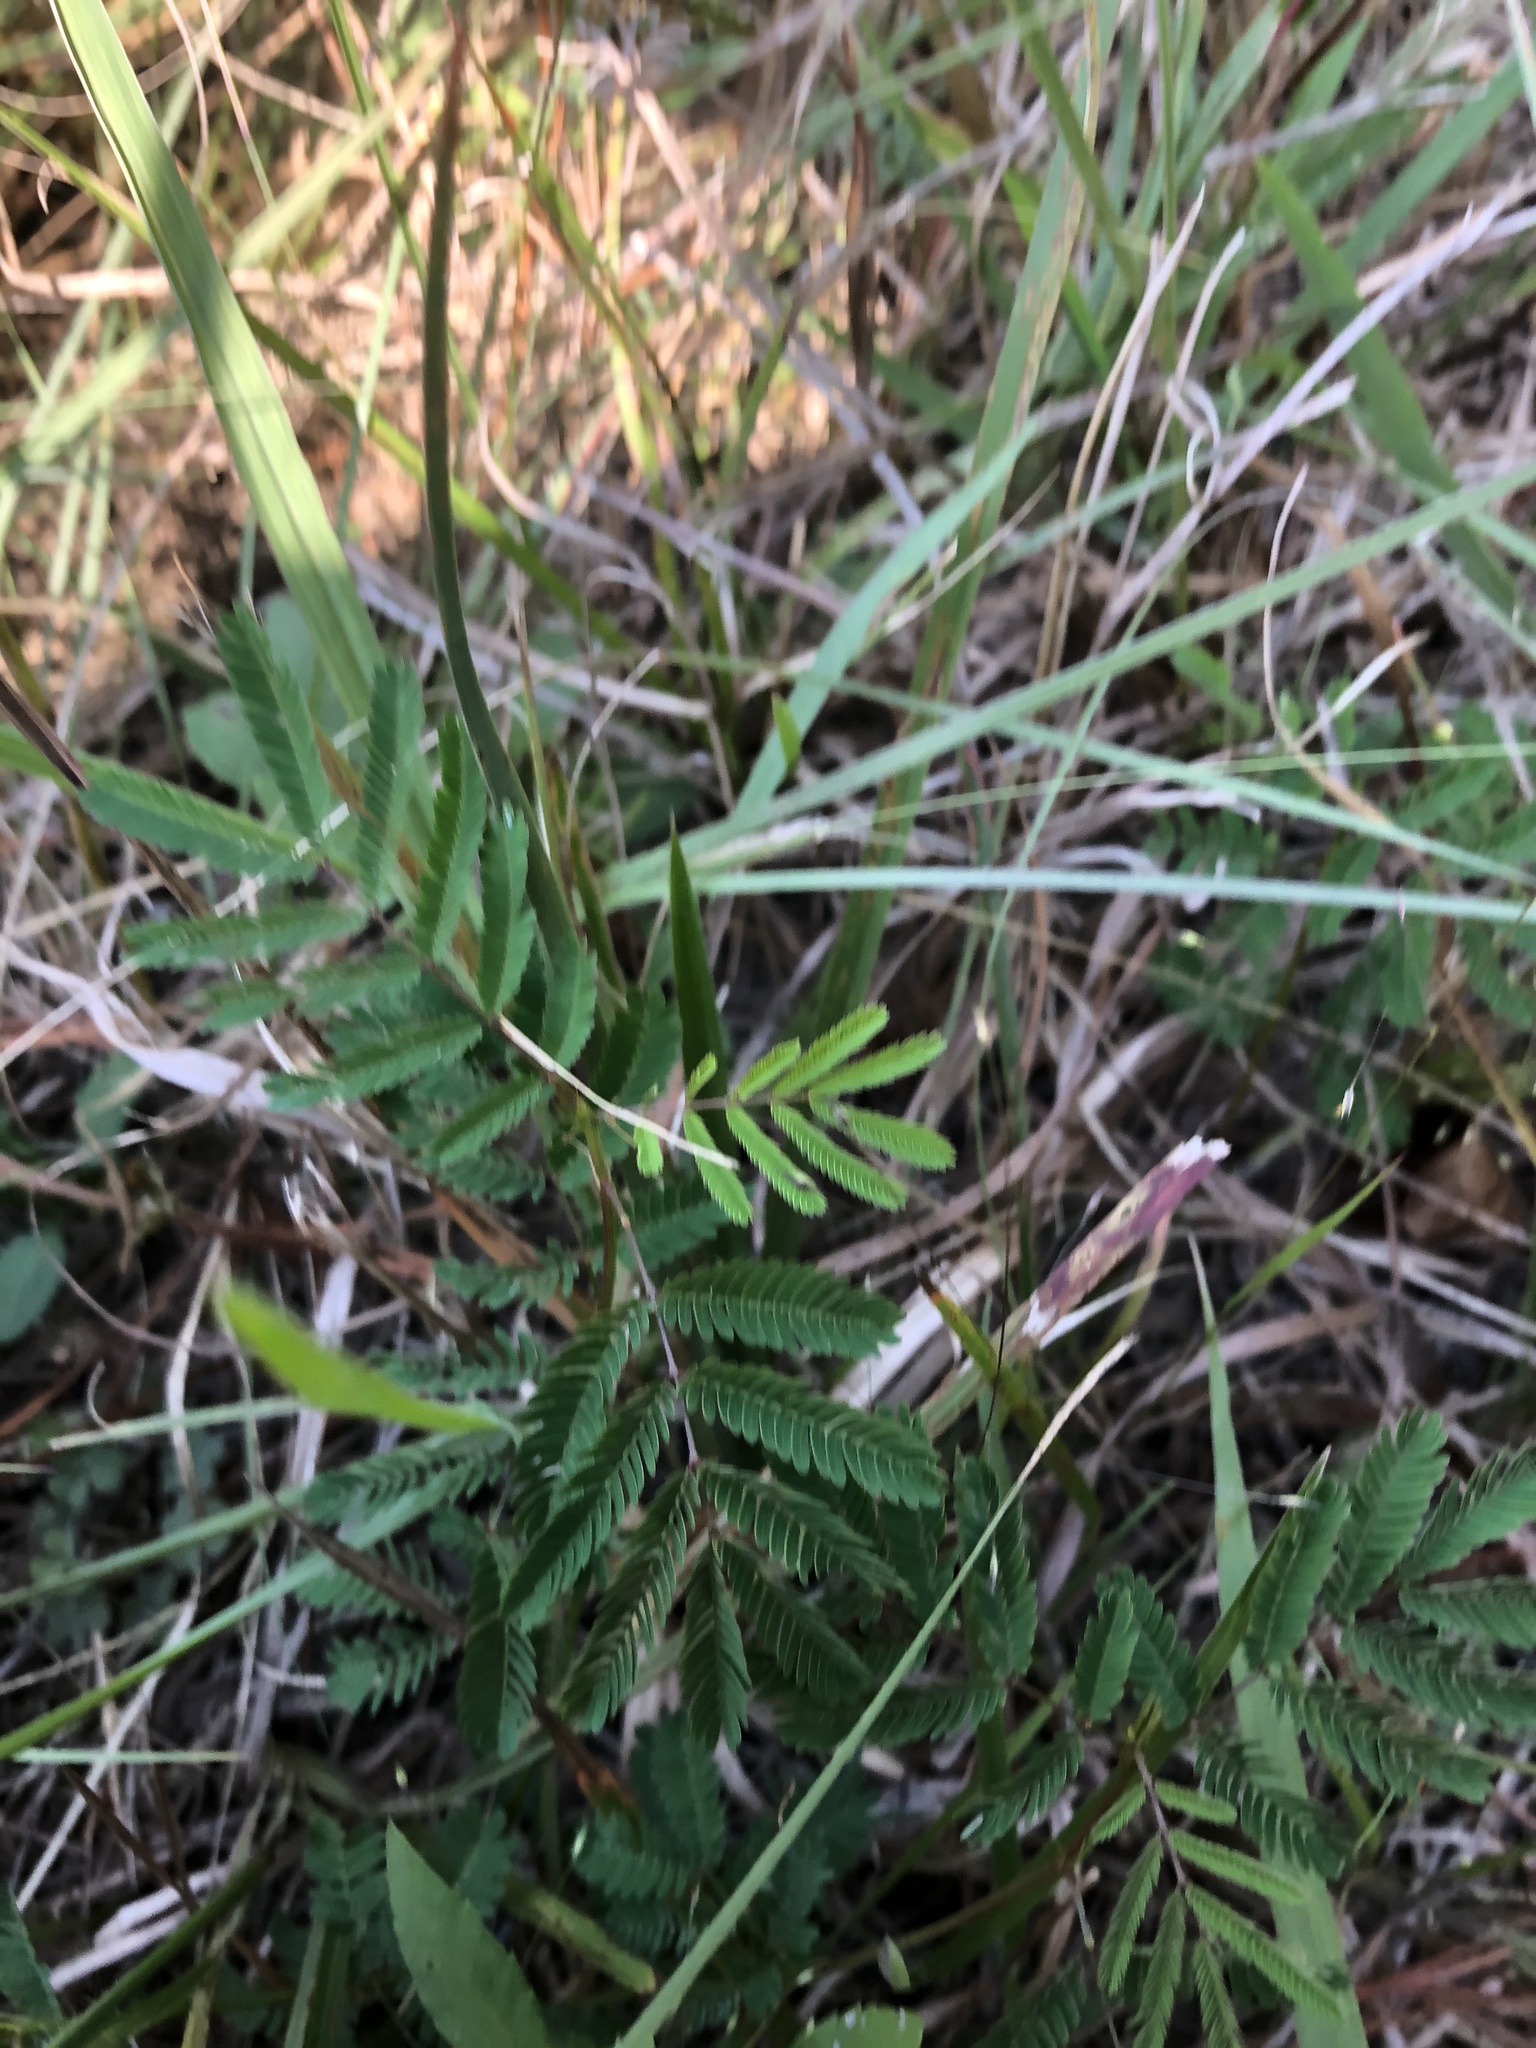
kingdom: Plantae
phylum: Tracheophyta
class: Magnoliopsida
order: Fabales
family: Fabaceae
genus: Desmanthus
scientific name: Desmanthus illinoensis
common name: Illinois bundle-flower
